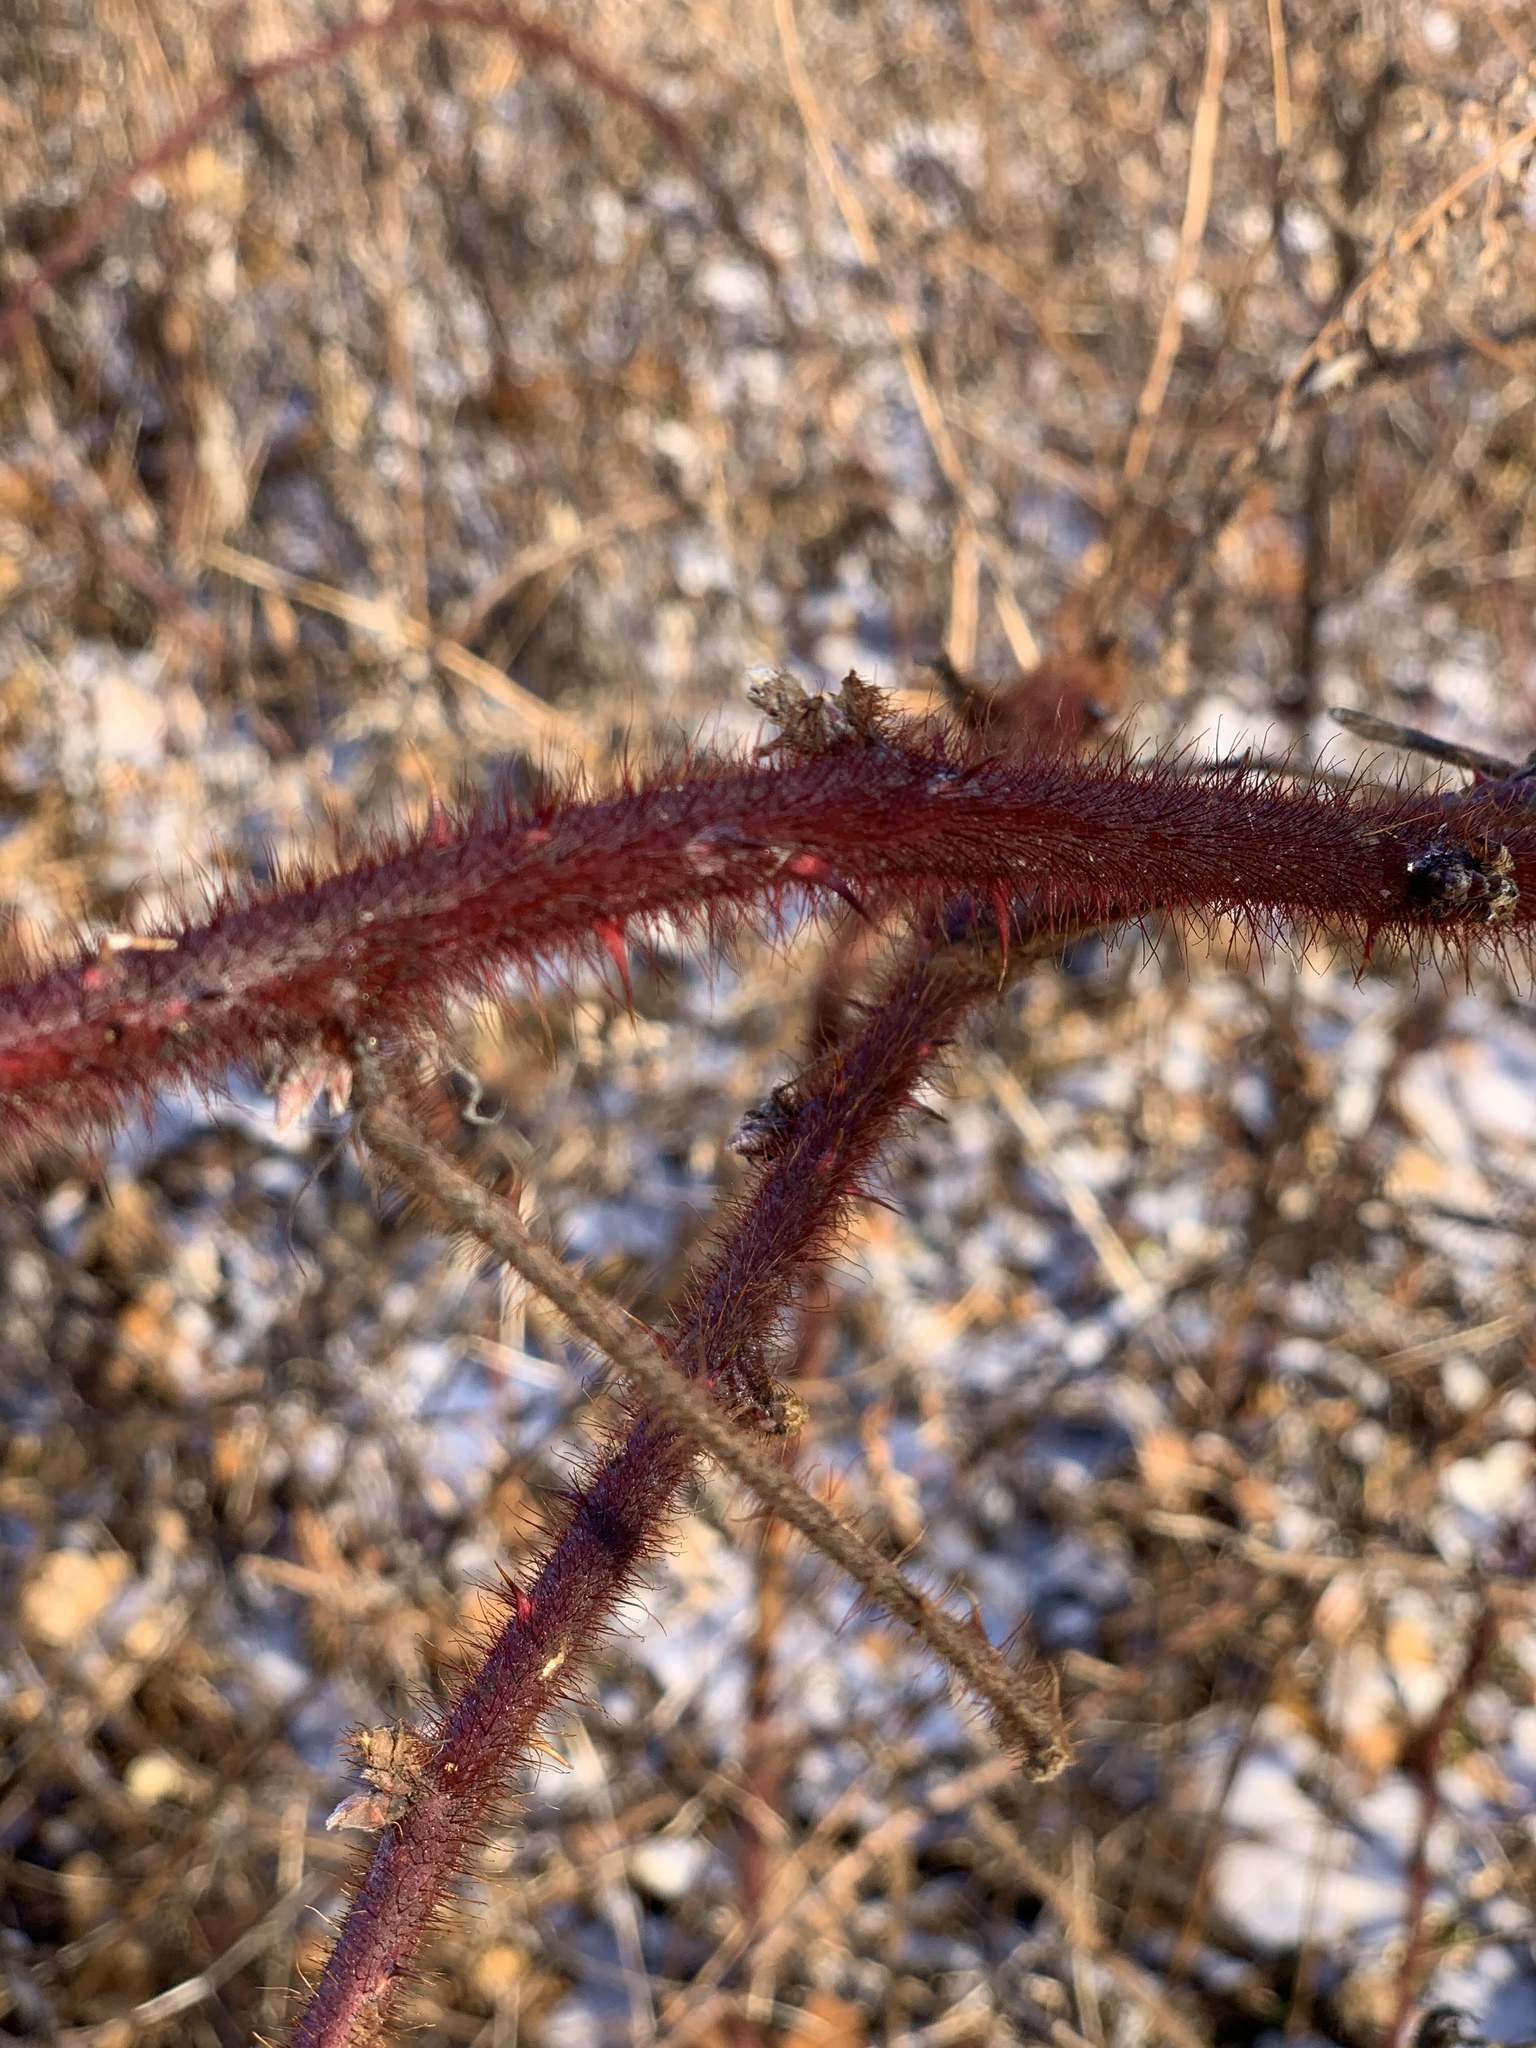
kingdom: Plantae
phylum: Tracheophyta
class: Magnoliopsida
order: Rosales
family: Rosaceae
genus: Rubus
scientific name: Rubus phoenicolasius
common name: Japanese wineberry
